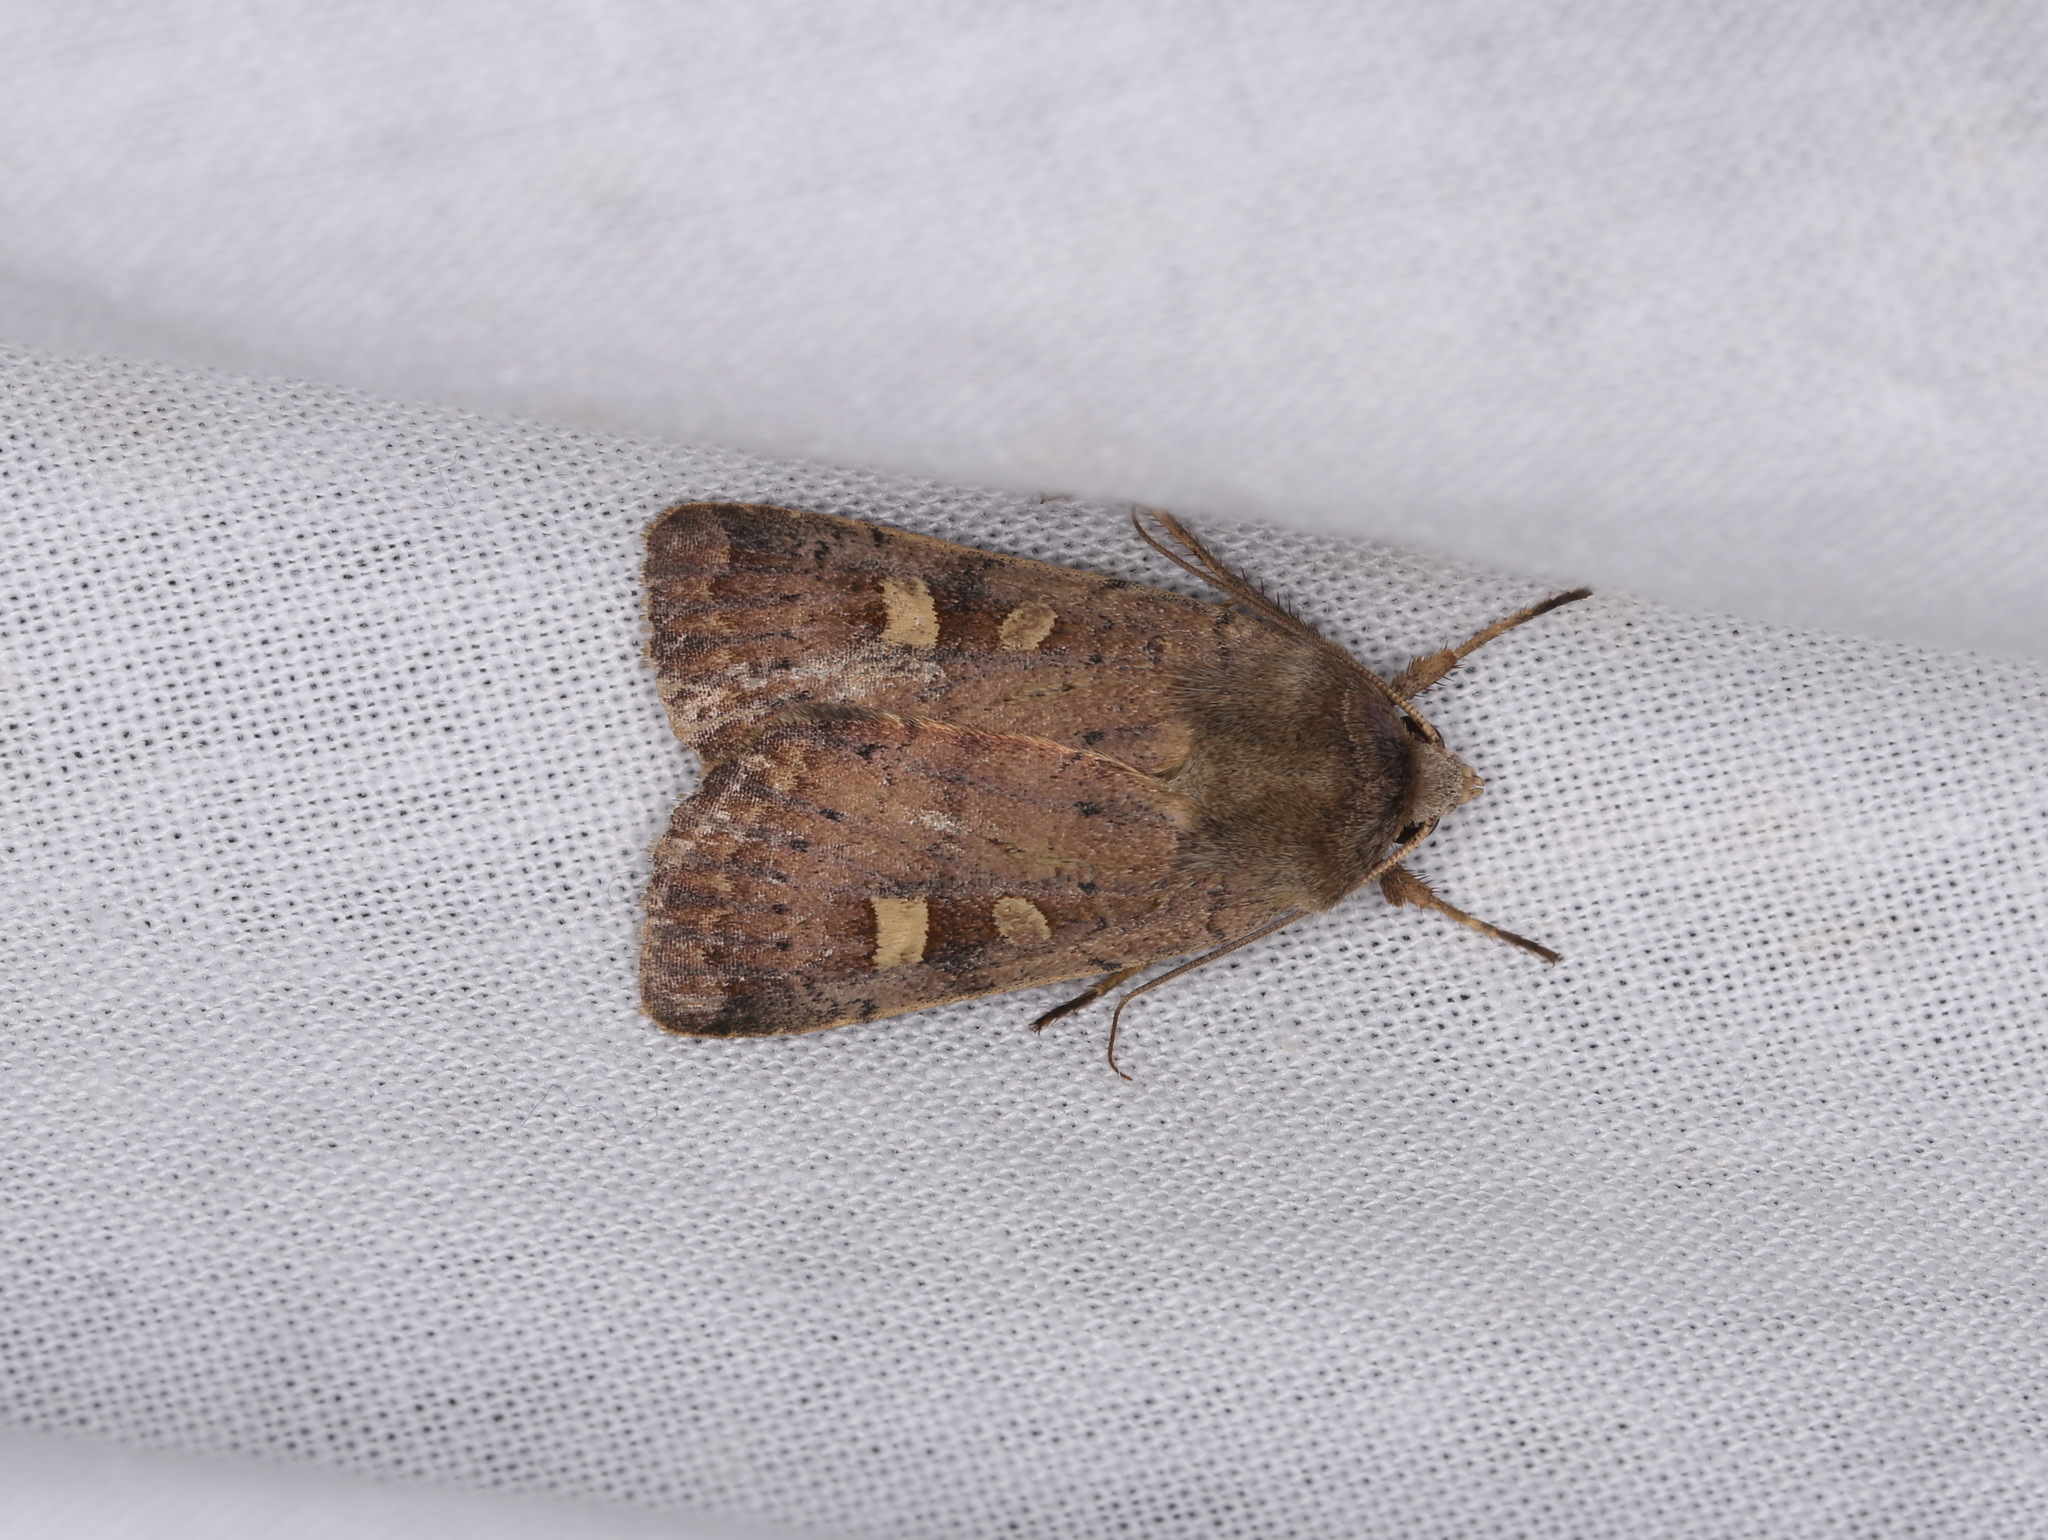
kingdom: Animalia
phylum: Arthropoda
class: Insecta
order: Lepidoptera
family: Noctuidae
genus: Xestia
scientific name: Xestia xanthographa
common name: Square-spot rustic
